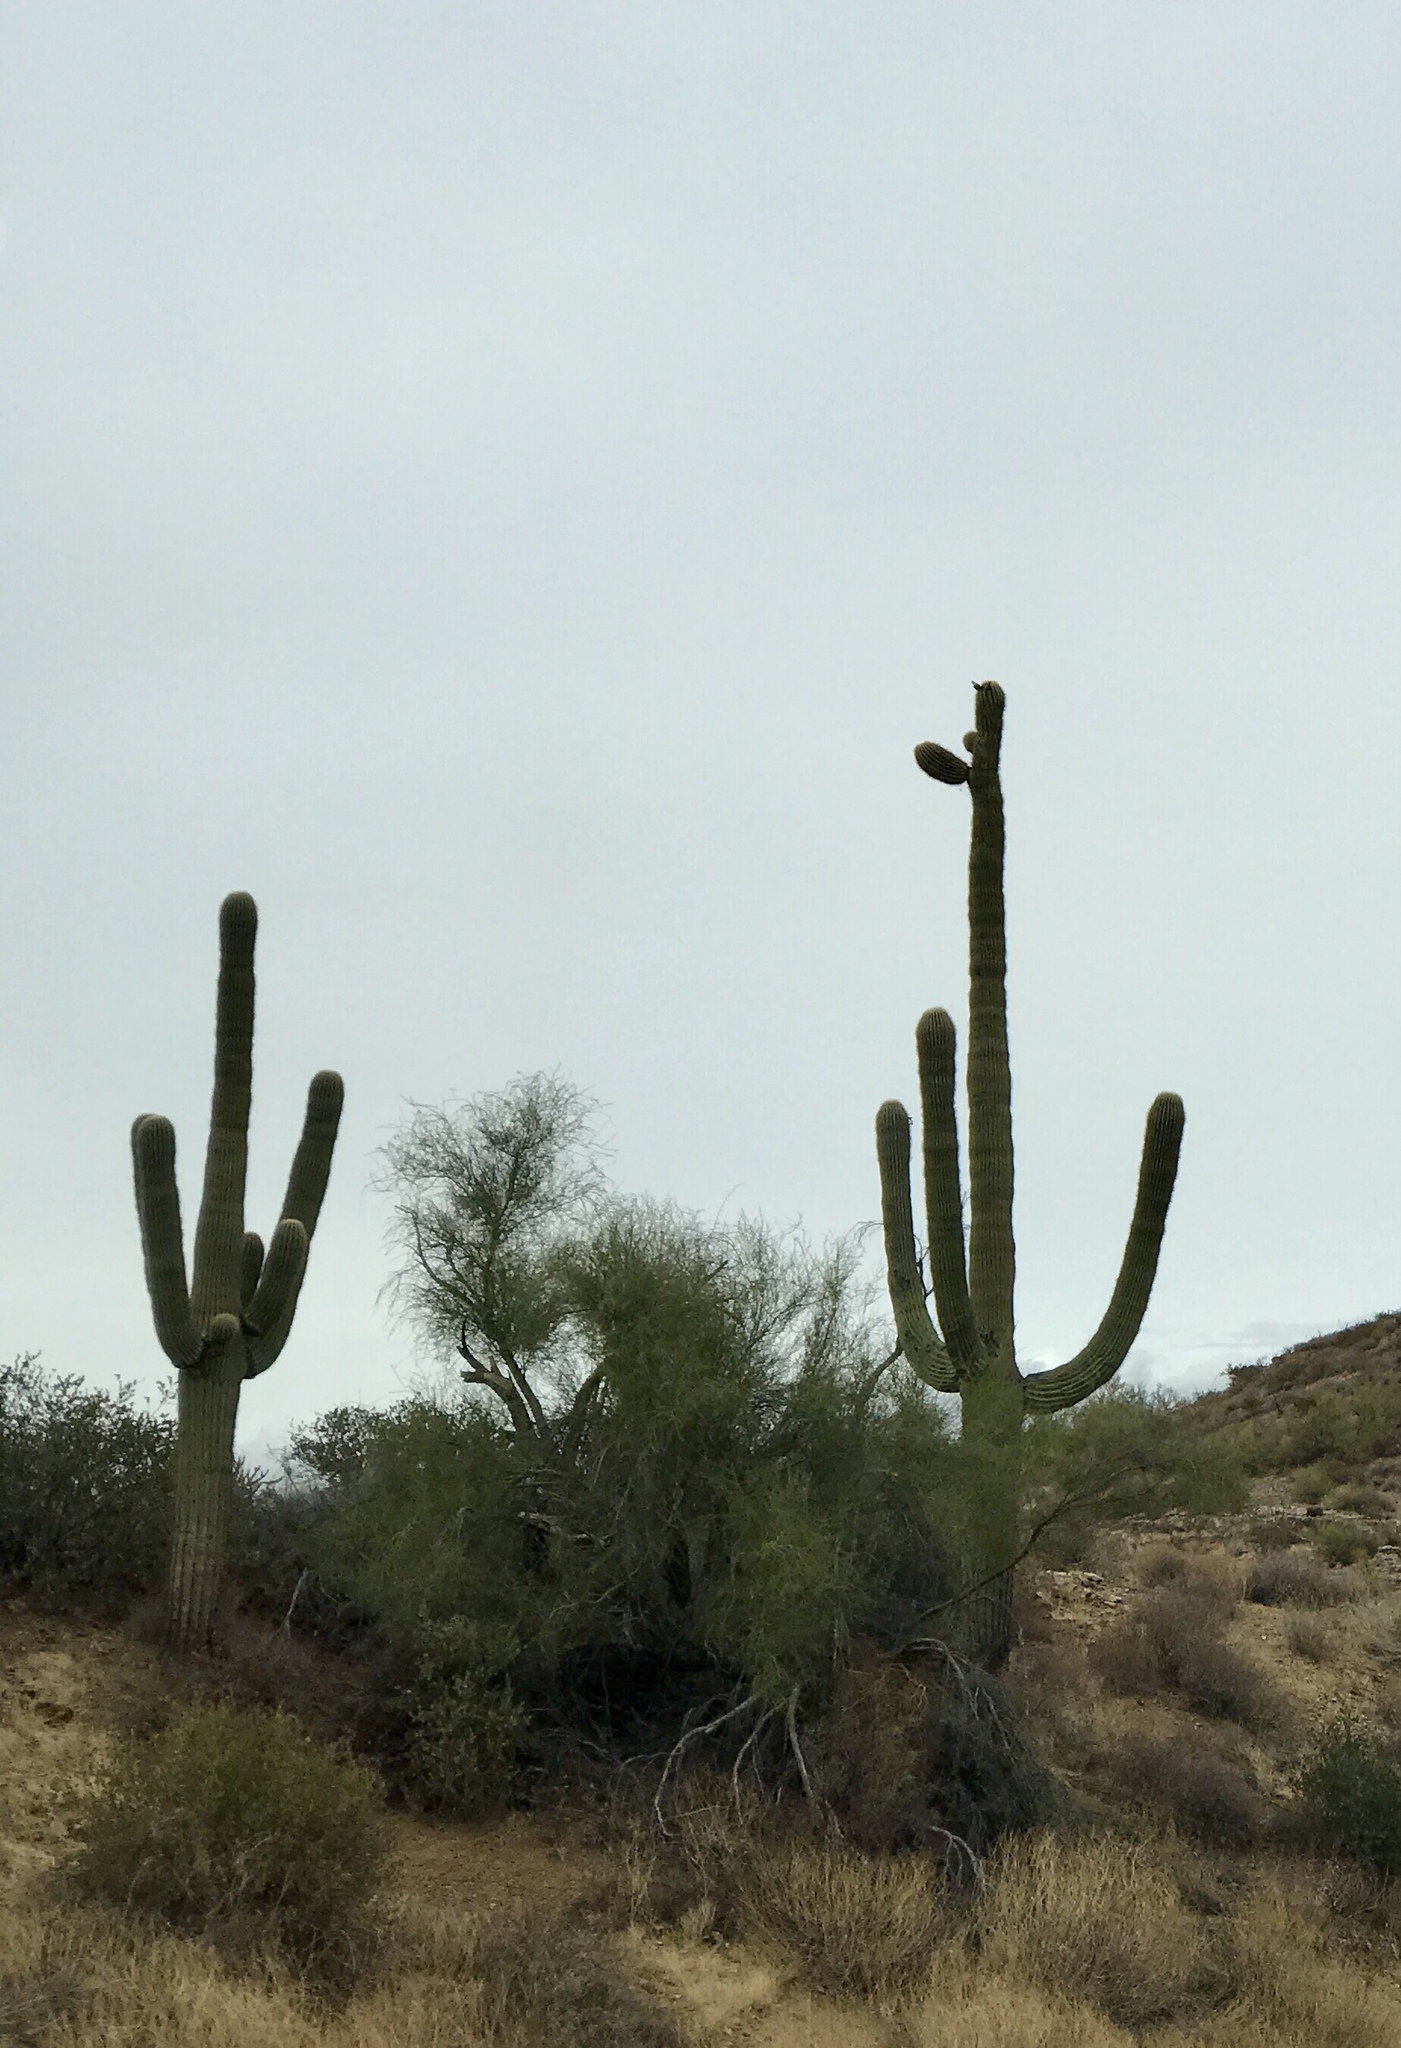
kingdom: Plantae
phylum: Tracheophyta
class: Magnoliopsida
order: Caryophyllales
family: Cactaceae
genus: Carnegiea
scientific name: Carnegiea gigantea
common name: Saguaro
